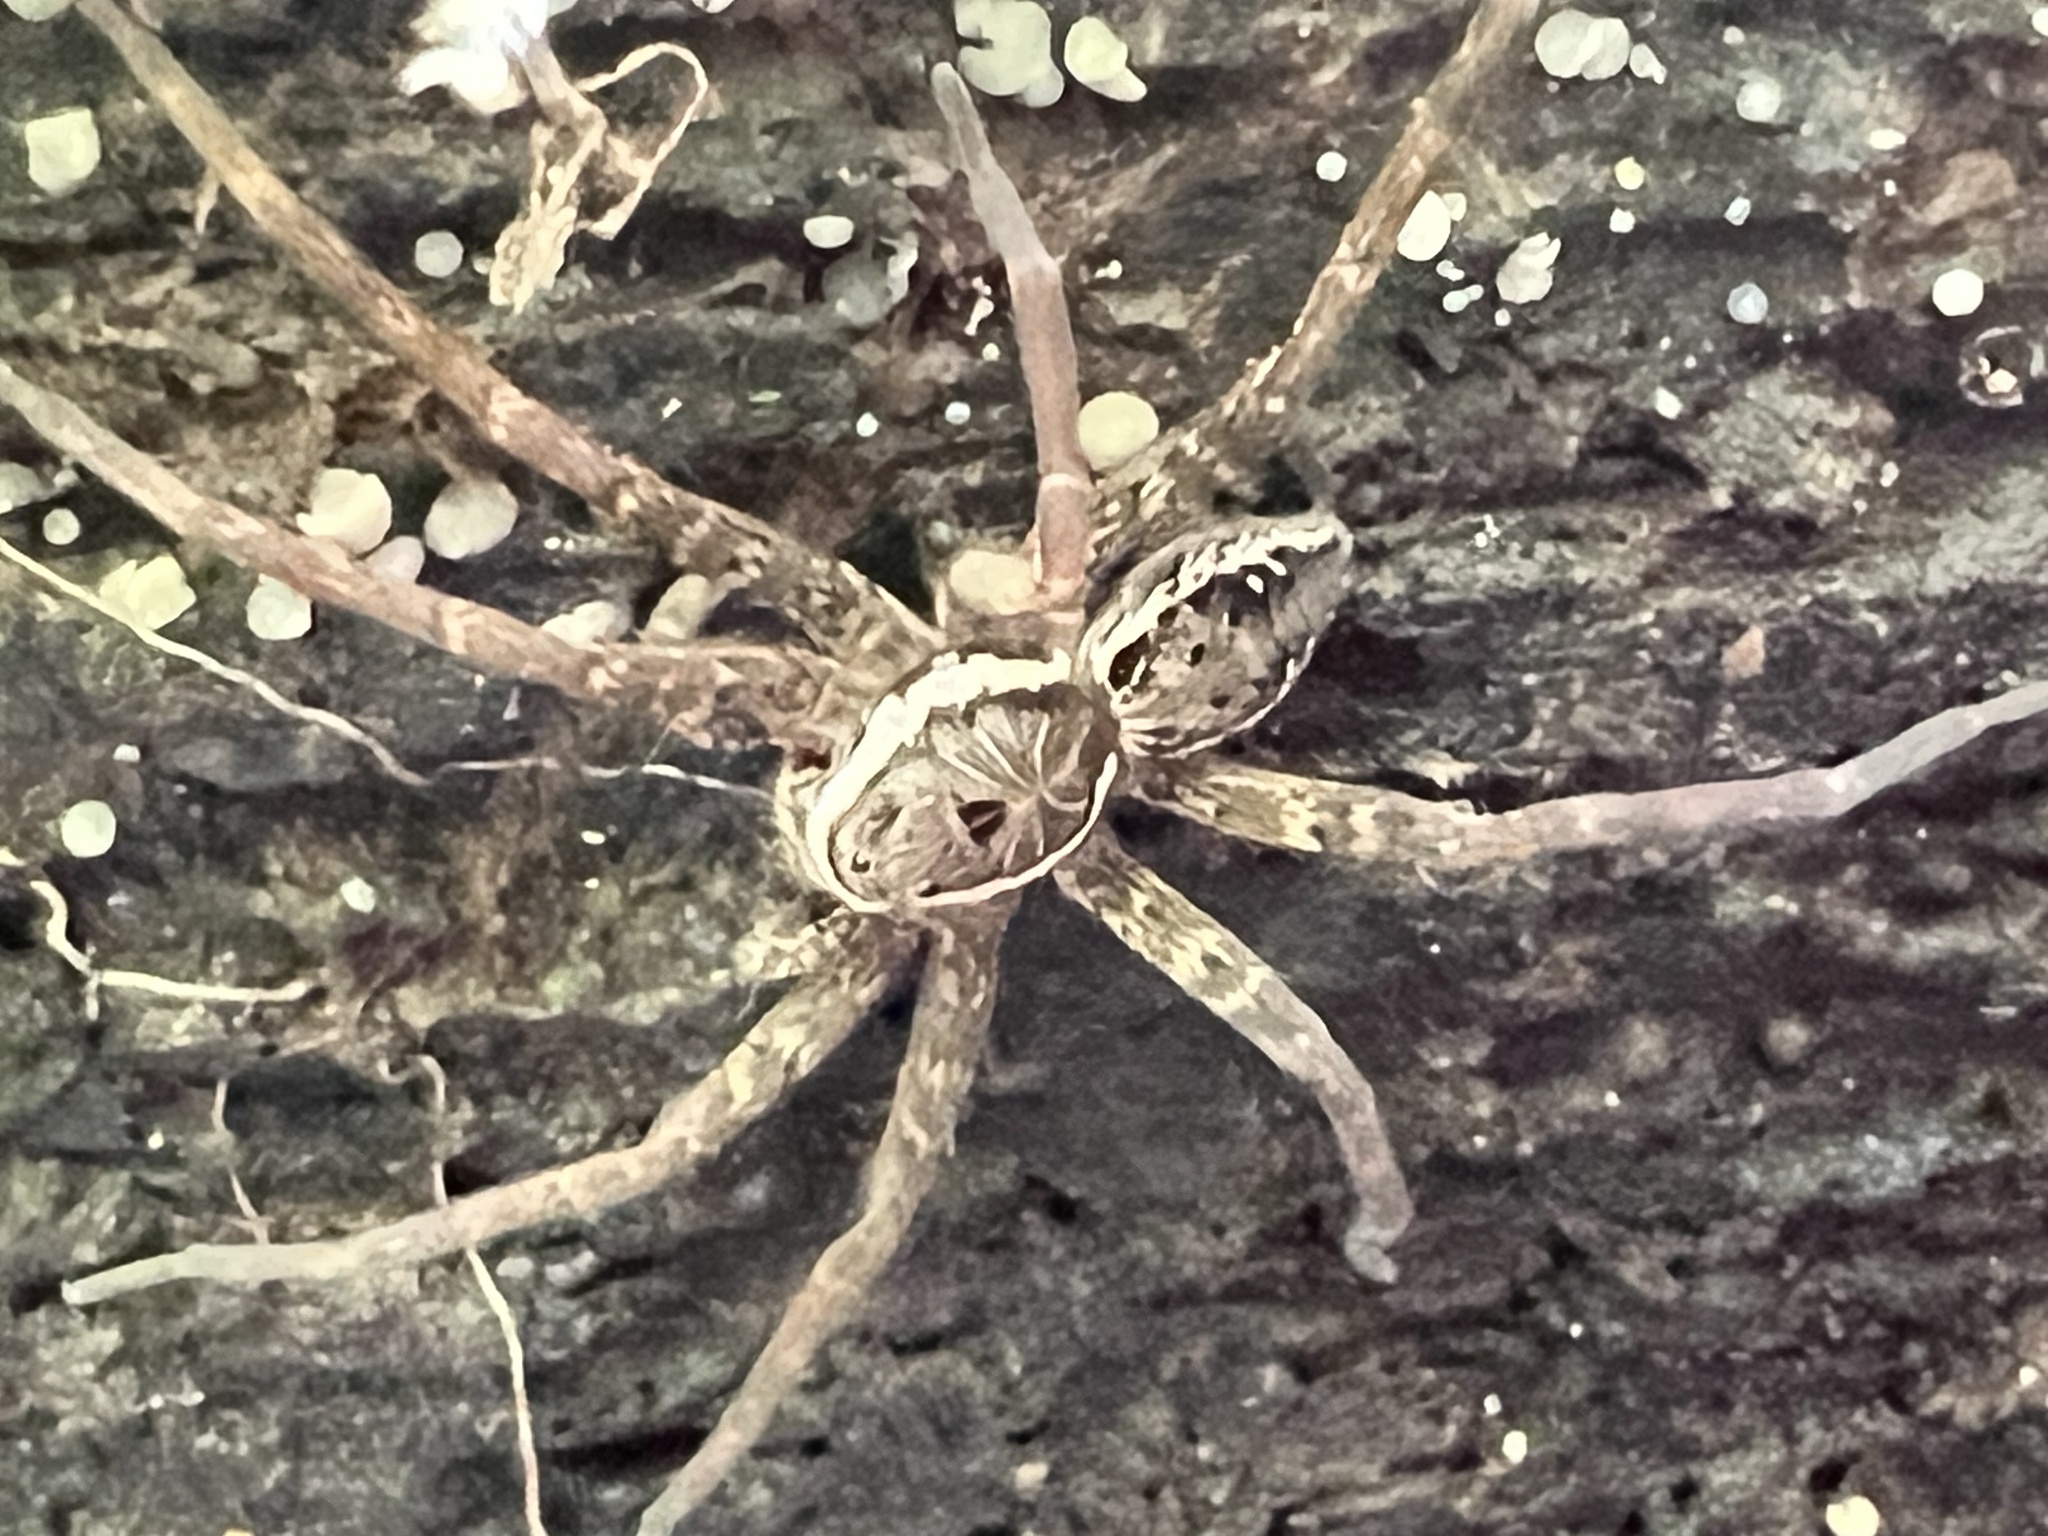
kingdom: Animalia
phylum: Arthropoda
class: Arachnida
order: Araneae
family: Pisauridae
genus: Dolomedes
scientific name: Dolomedes vittatus
